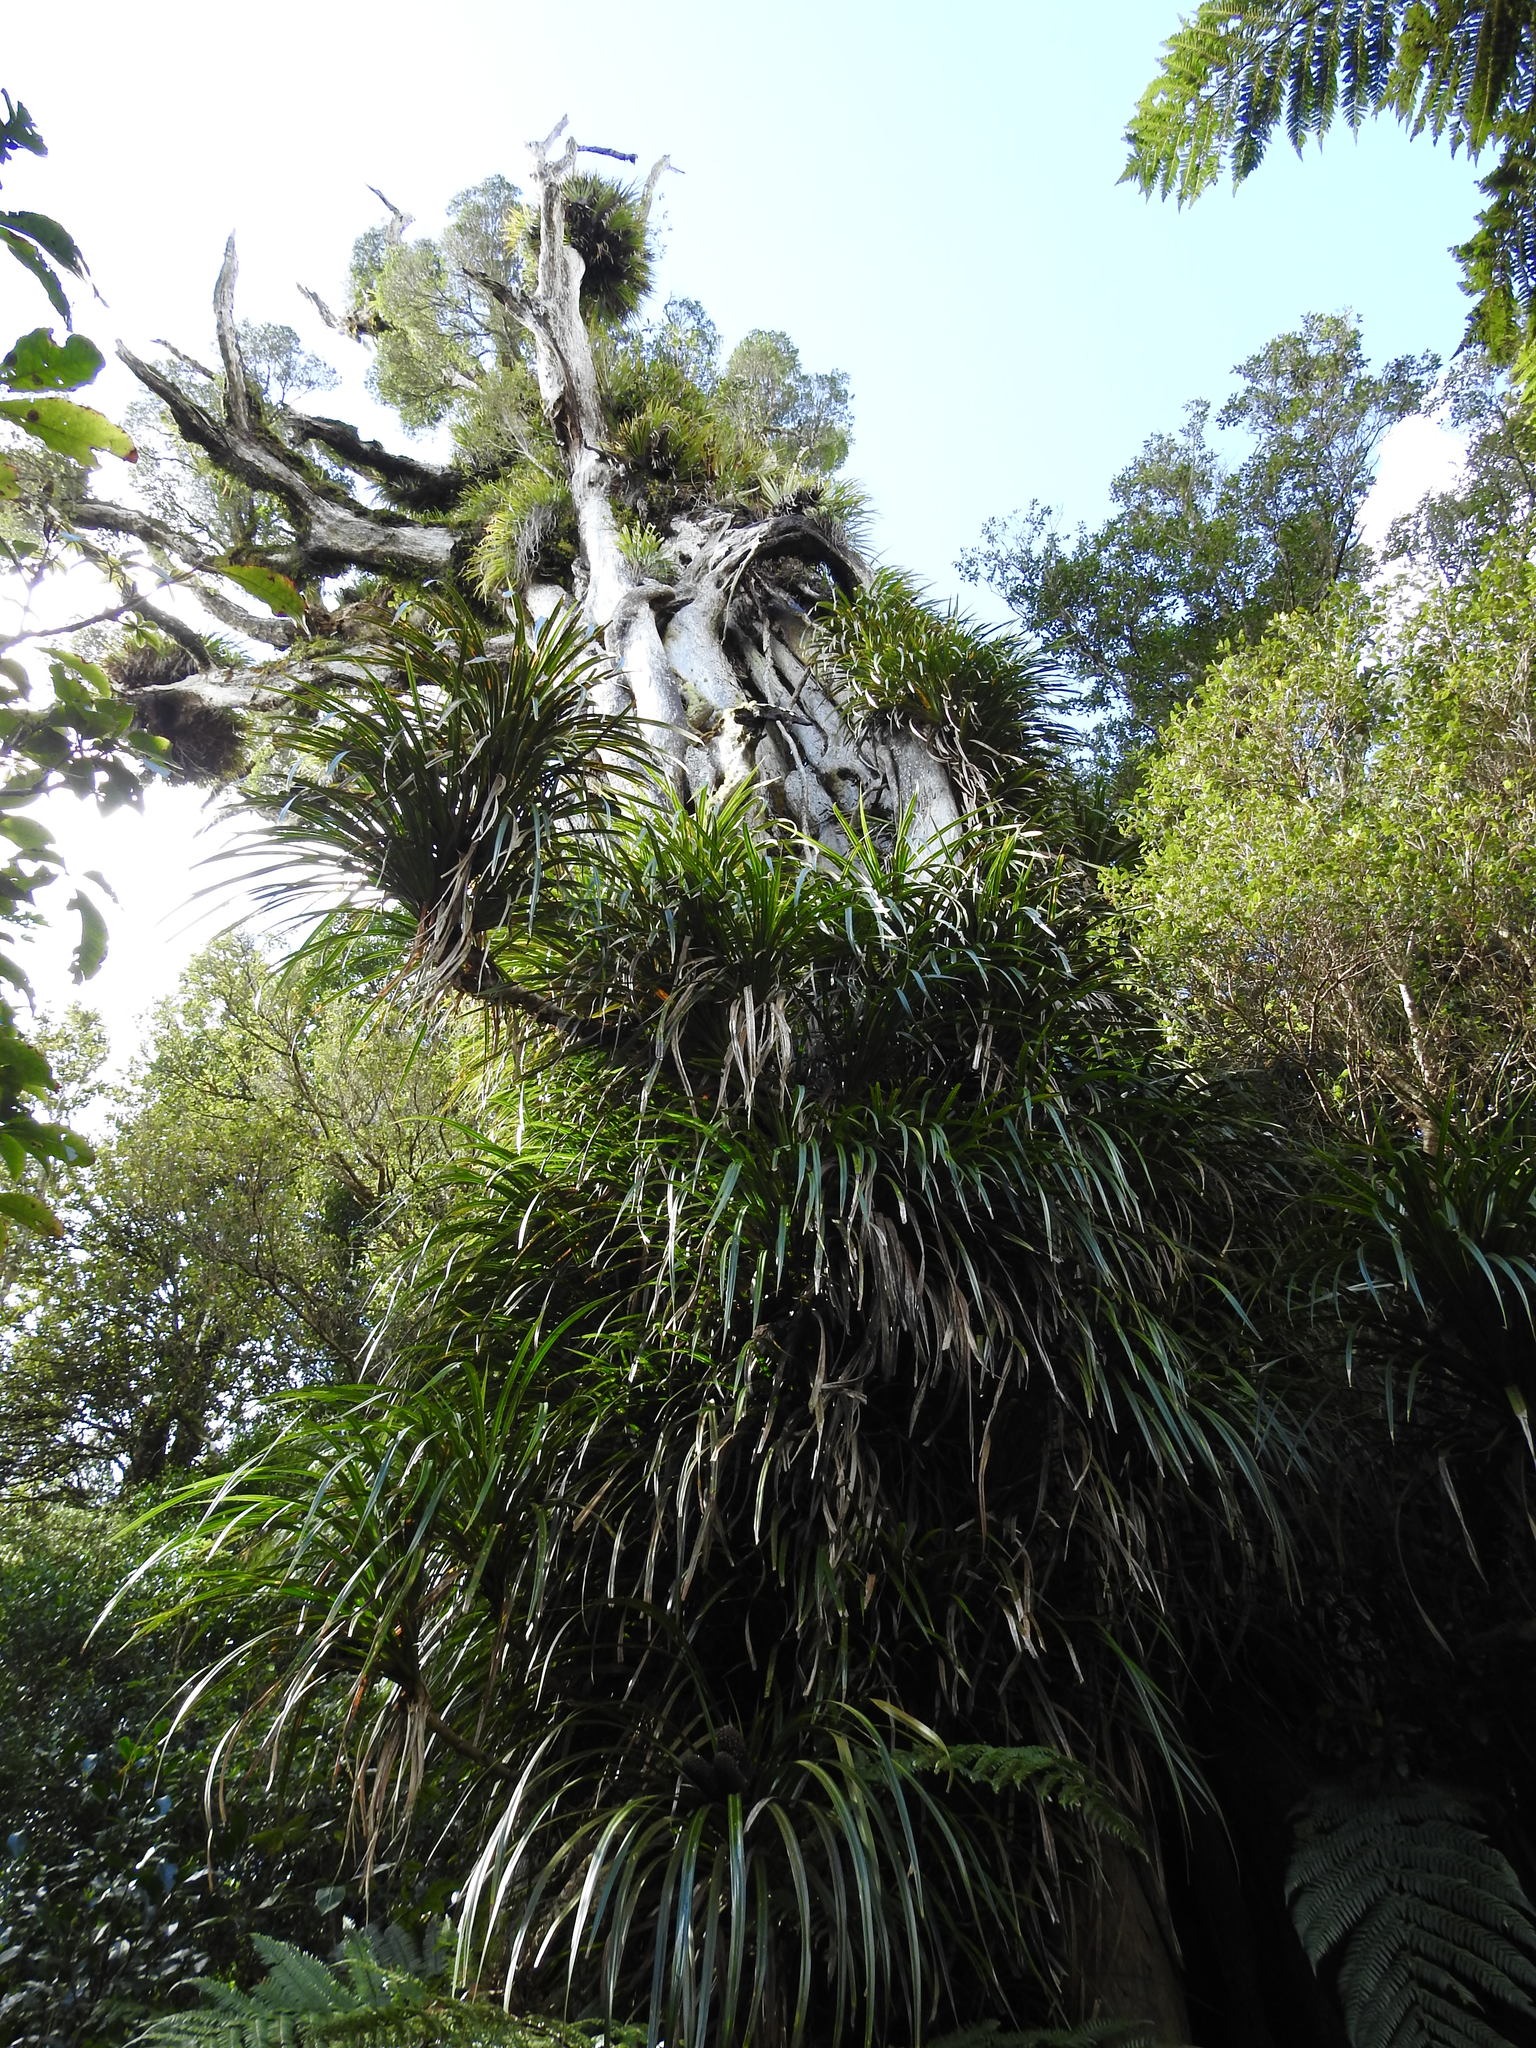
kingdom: Plantae
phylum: Tracheophyta
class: Magnoliopsida
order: Myrtales
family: Myrtaceae
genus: Metrosideros
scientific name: Metrosideros robusta
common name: Northern rata
